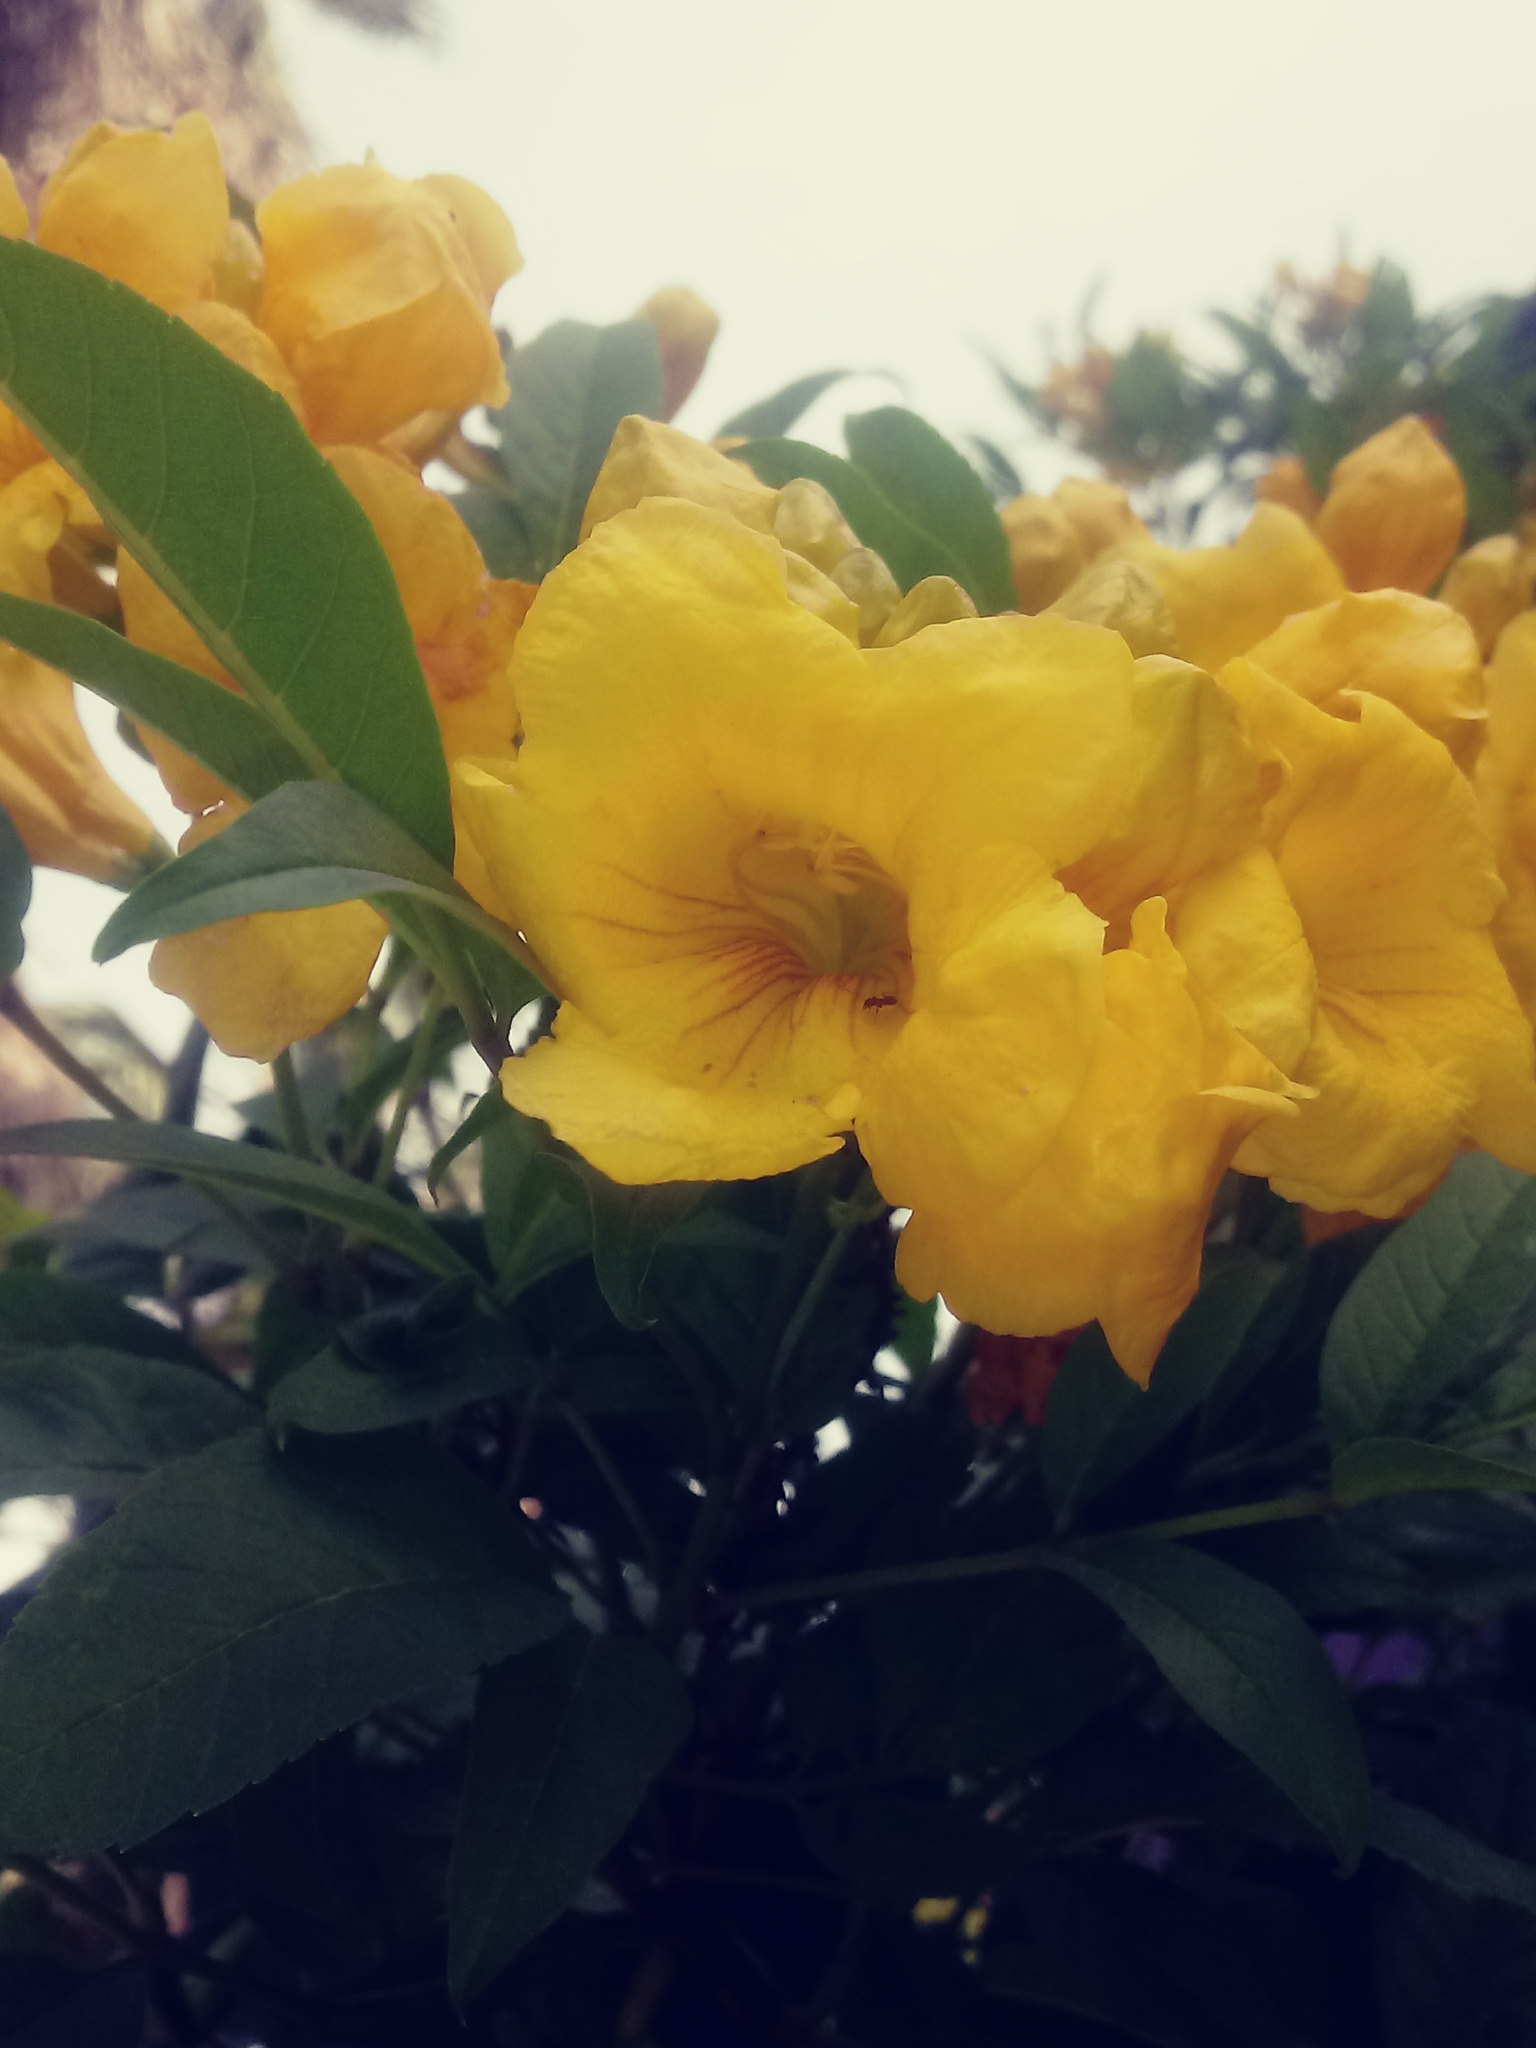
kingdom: Plantae
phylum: Tracheophyta
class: Magnoliopsida
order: Lamiales
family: Bignoniaceae
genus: Tecoma
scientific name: Tecoma stans
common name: Yellow trumpetbush
